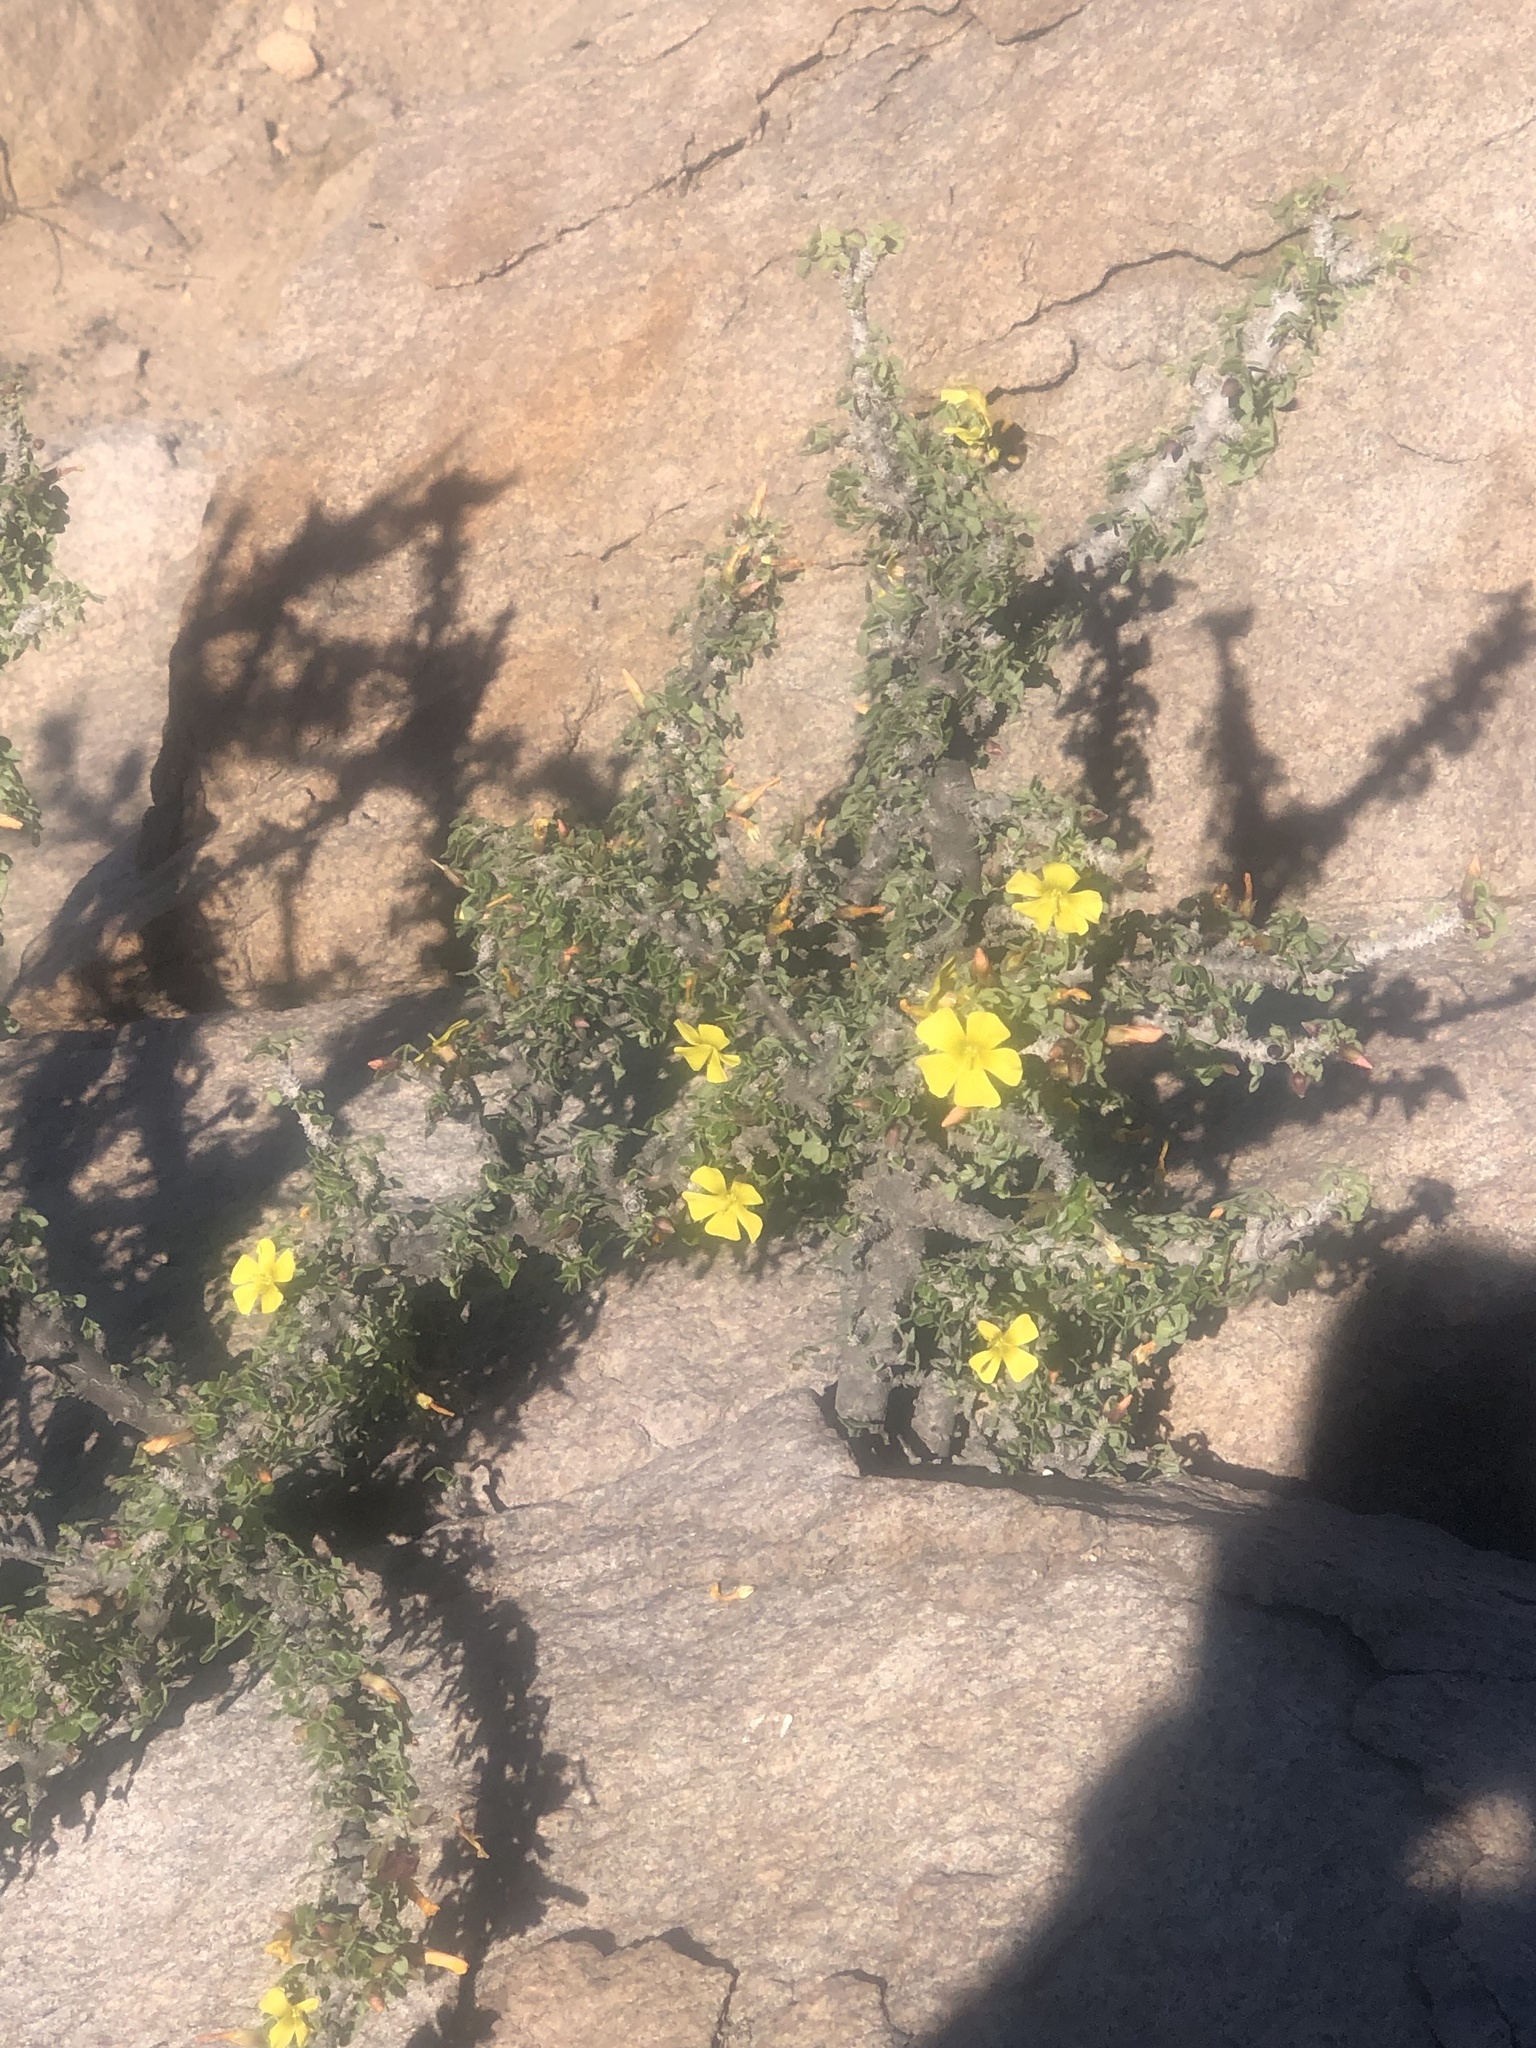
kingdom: Plantae
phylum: Tracheophyta
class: Magnoliopsida
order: Oxalidales
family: Oxalidaceae
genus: Oxalis
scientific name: Oxalis gigantea
